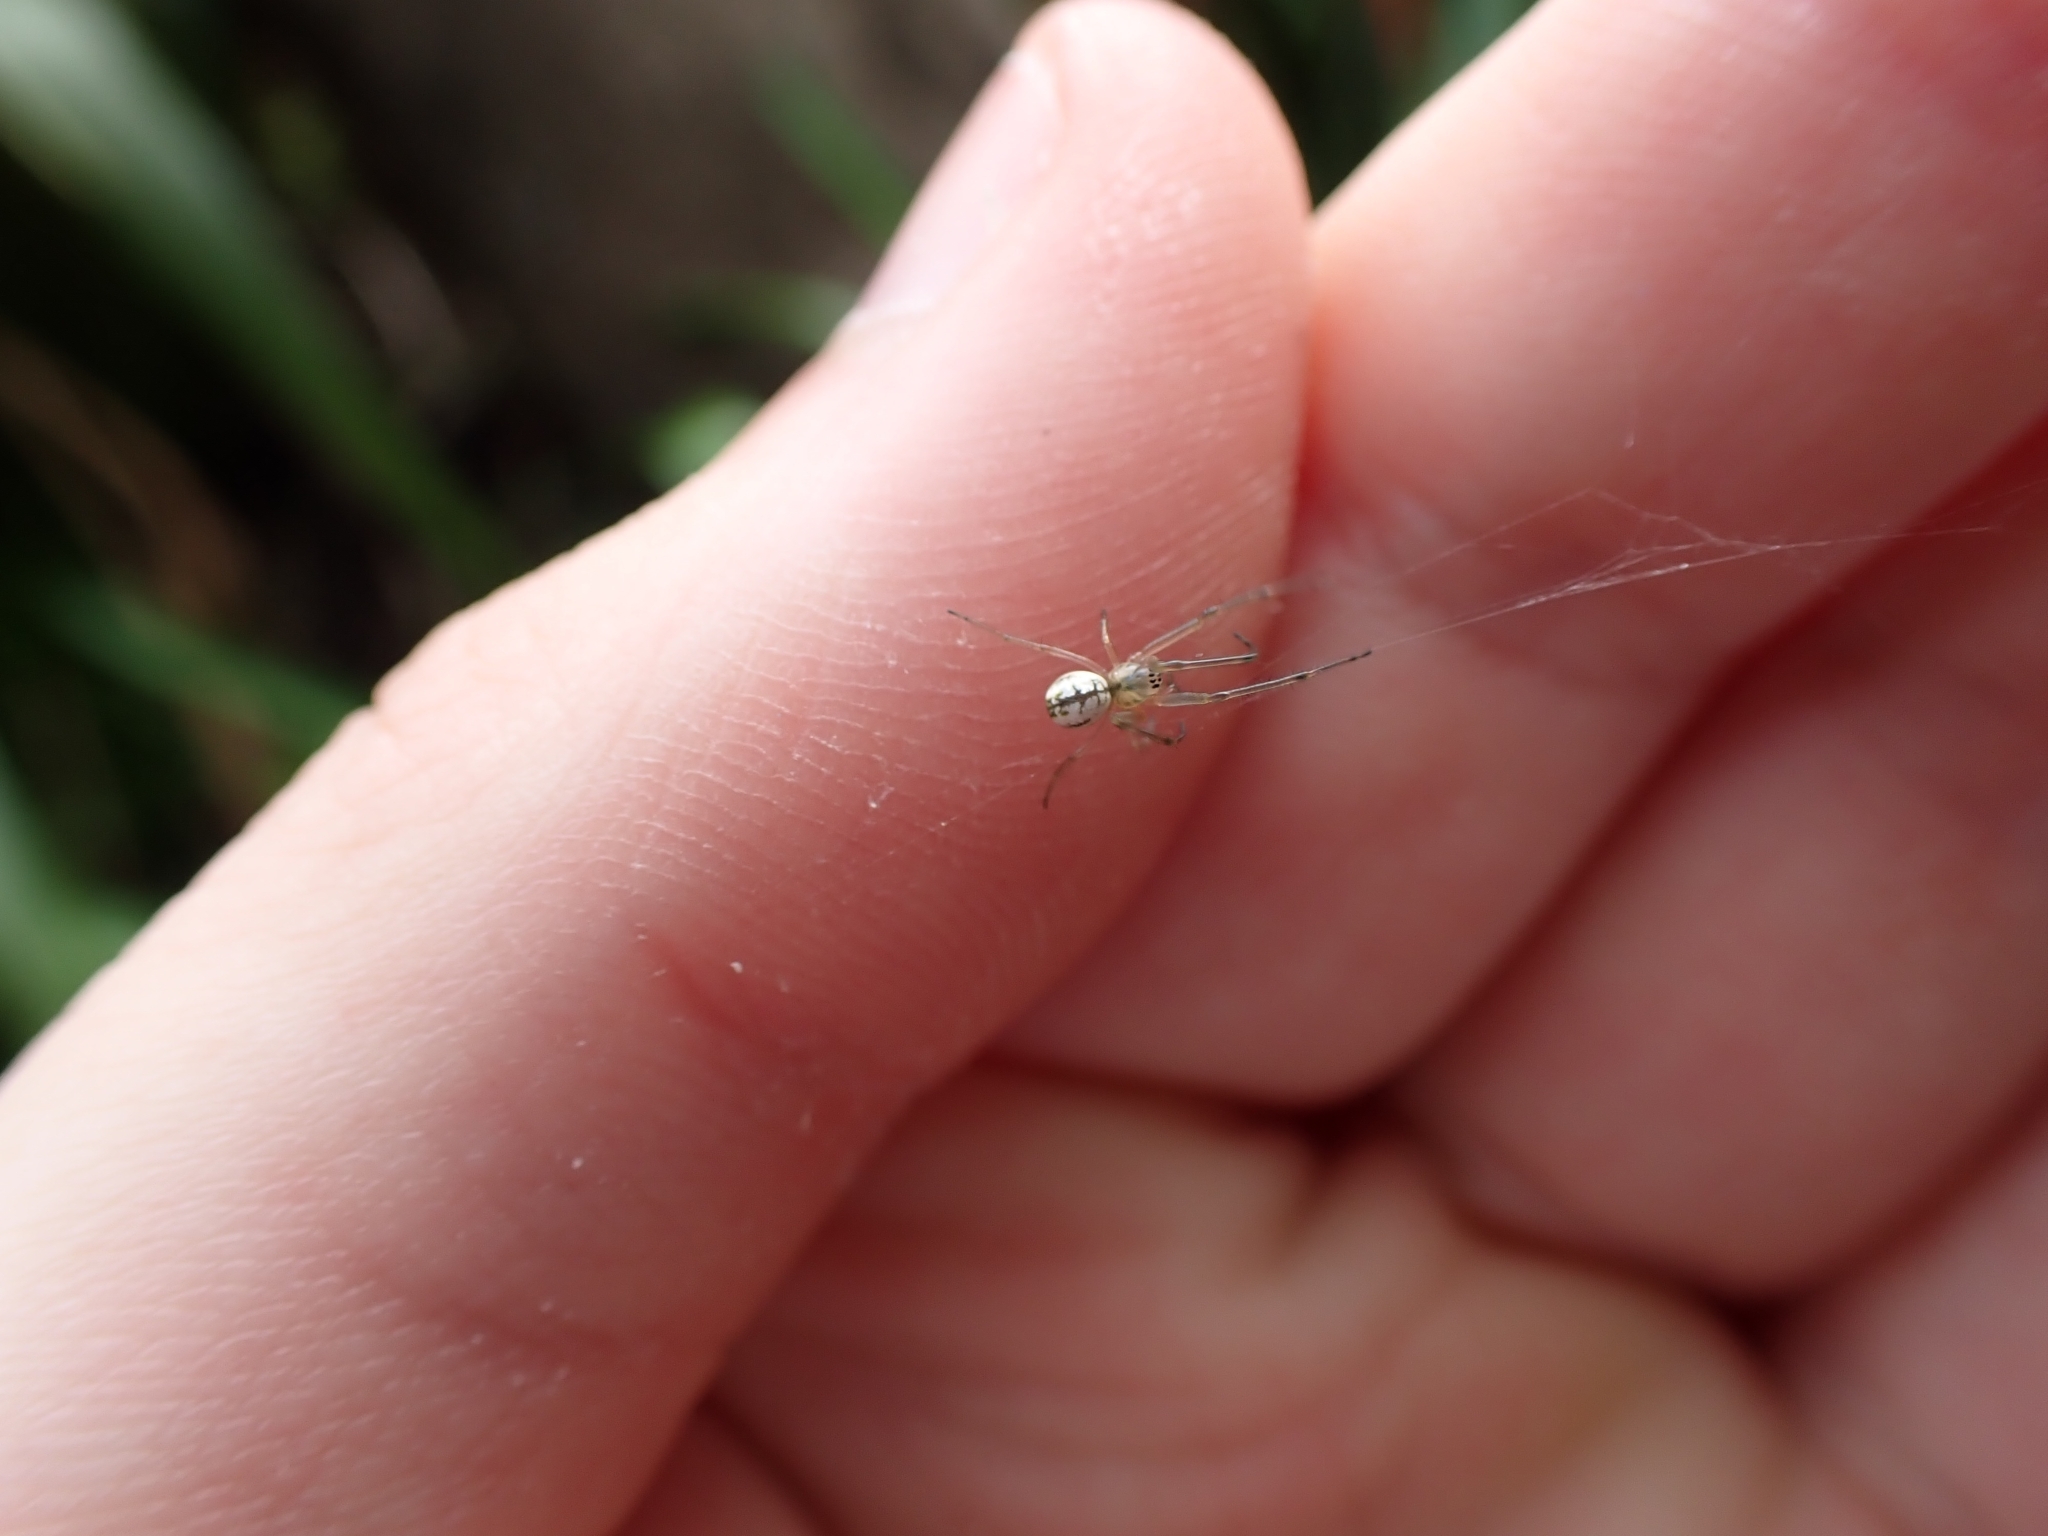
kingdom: Animalia
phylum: Arthropoda
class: Arachnida
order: Araneae
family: Tetragnathidae
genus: Nanometa
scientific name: Nanometa forsteri
